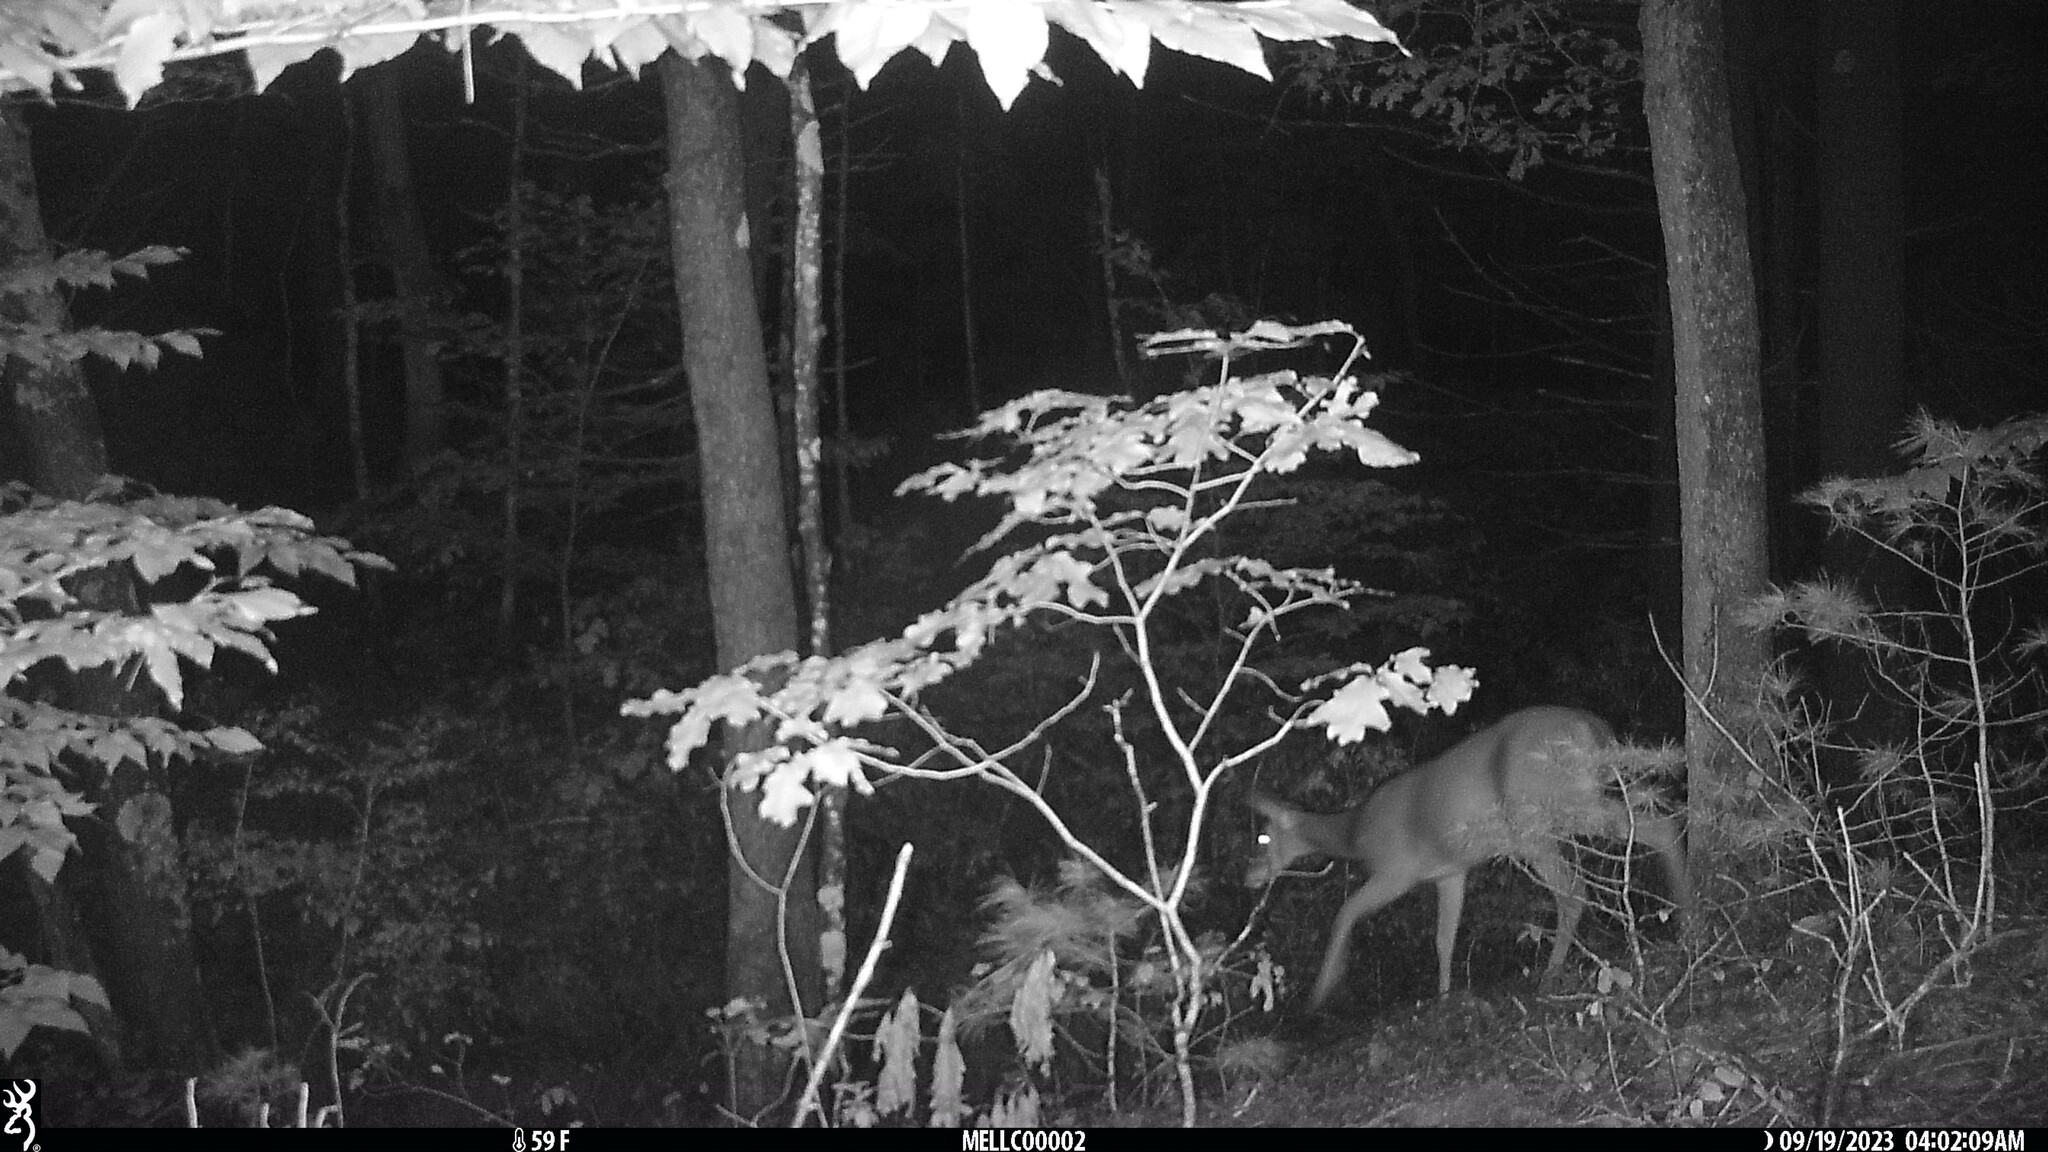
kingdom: Animalia
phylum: Chordata
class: Mammalia
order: Artiodactyla
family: Cervidae
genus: Odocoileus
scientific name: Odocoileus virginianus
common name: White-tailed deer
